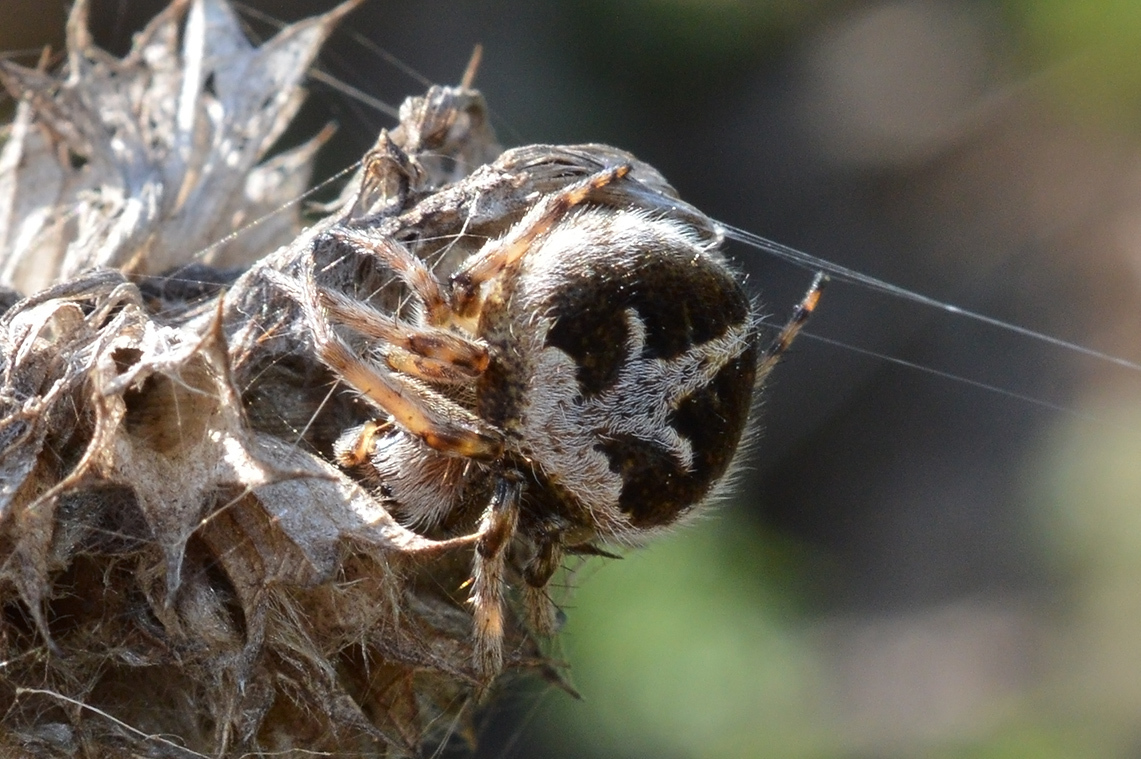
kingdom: Animalia
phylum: Arthropoda
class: Arachnida
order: Araneae
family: Araneidae
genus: Agalenatea
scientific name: Agalenatea redii
